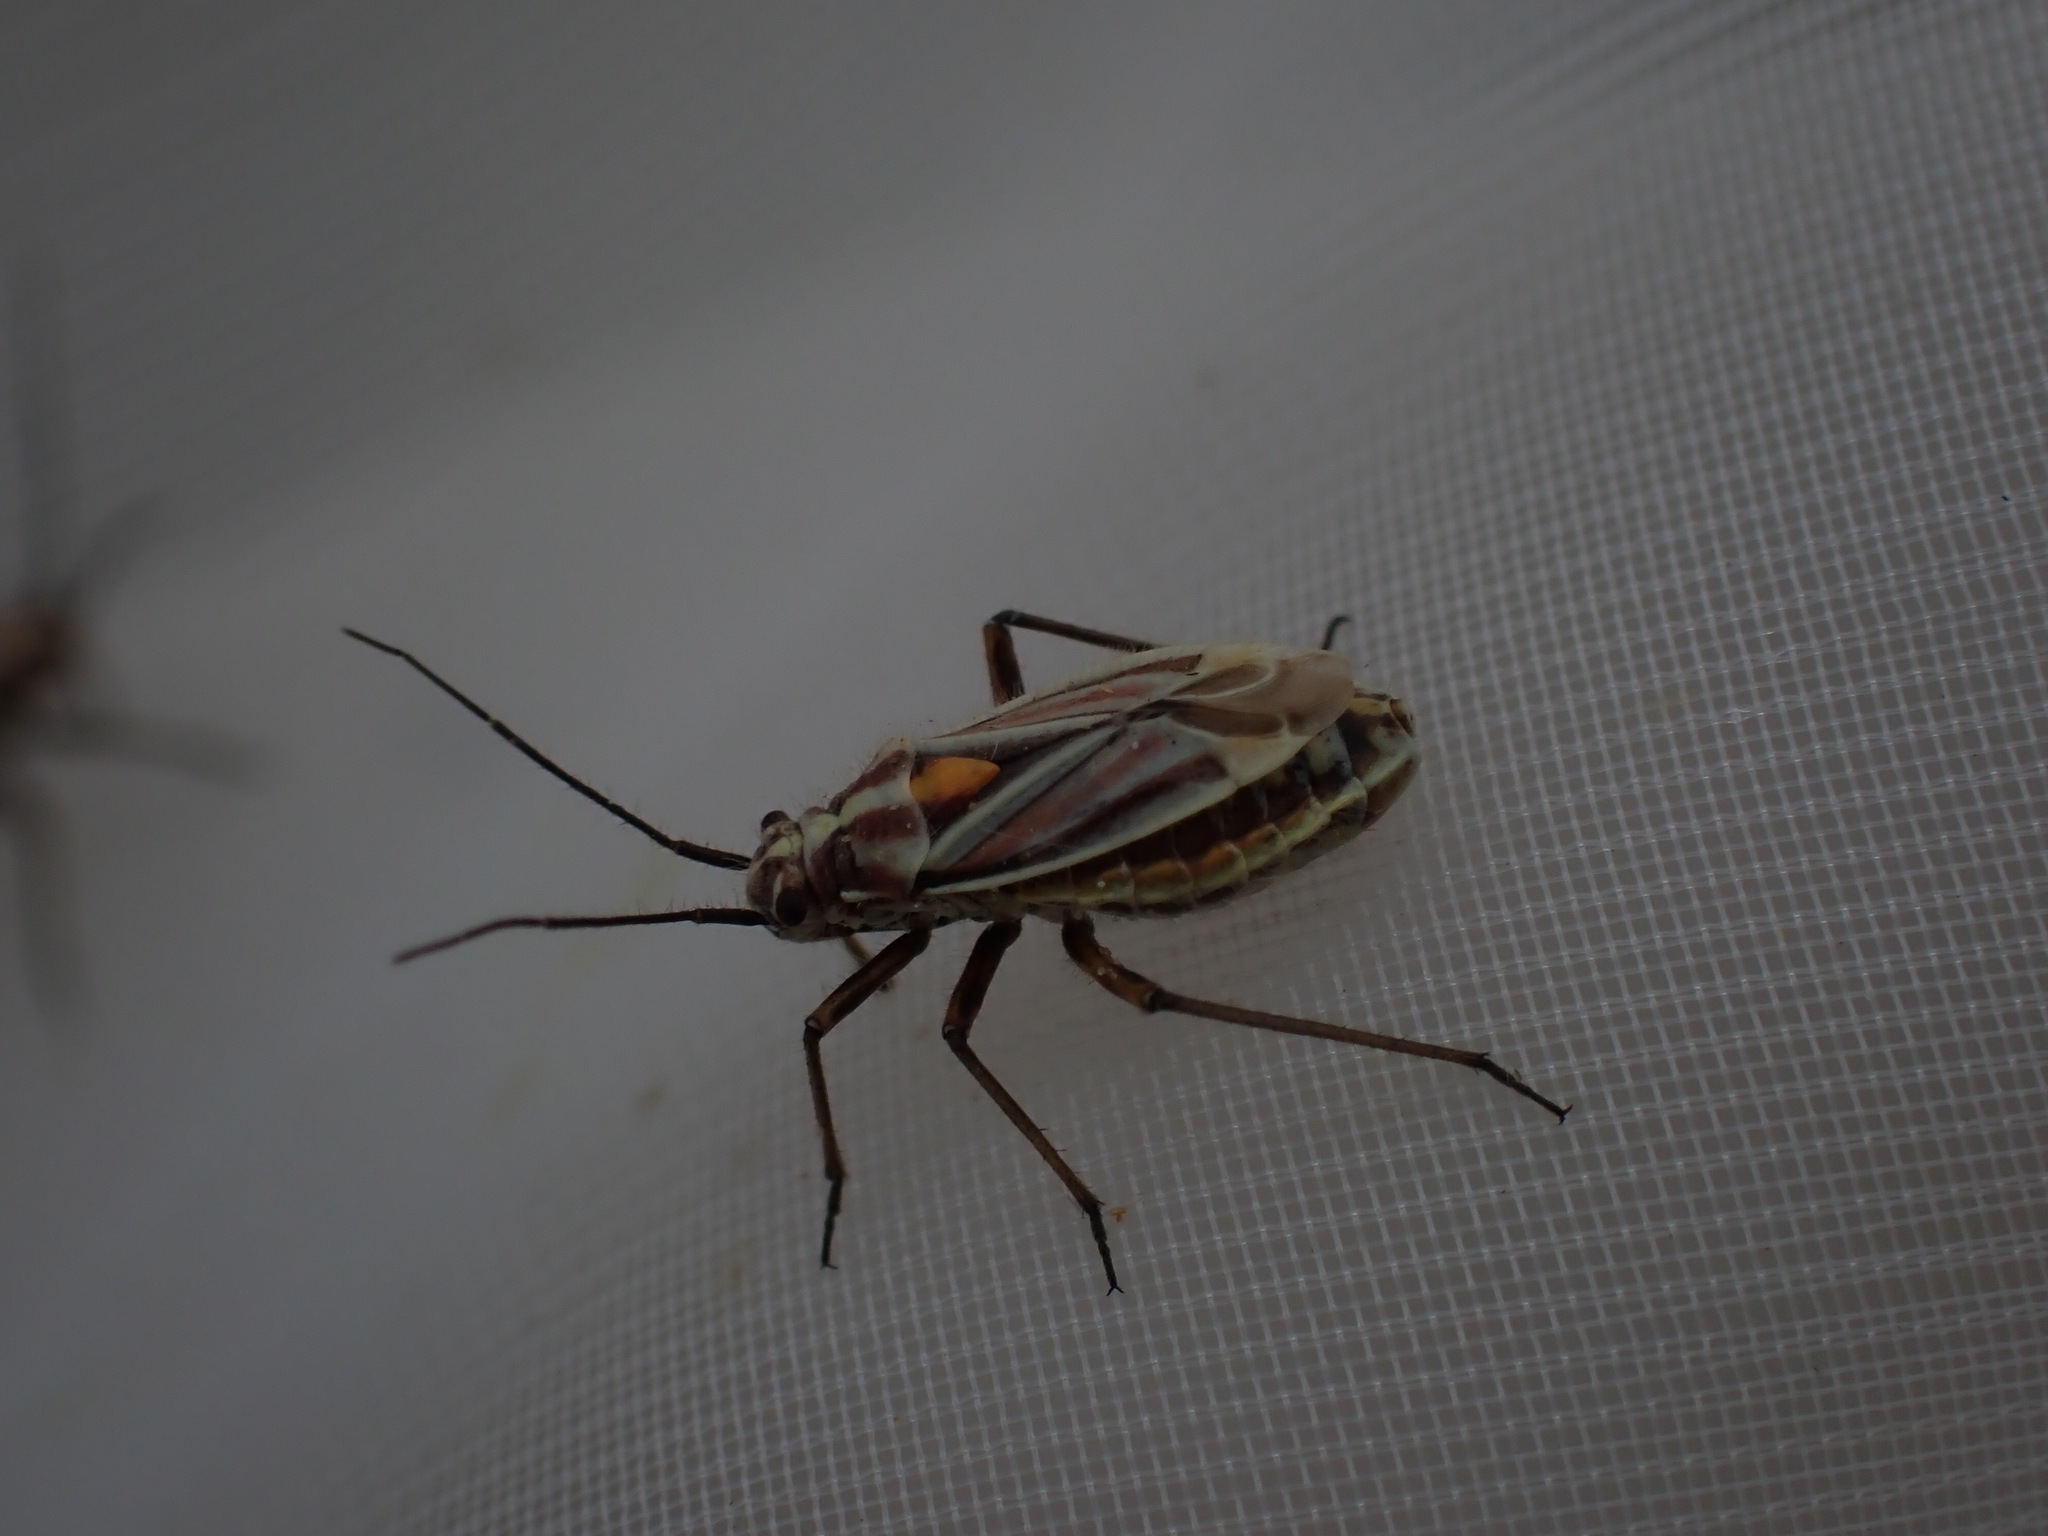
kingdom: Animalia
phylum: Arthropoda
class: Insecta
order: Hemiptera
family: Miridae
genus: Horistus
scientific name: Horistus orientalis
